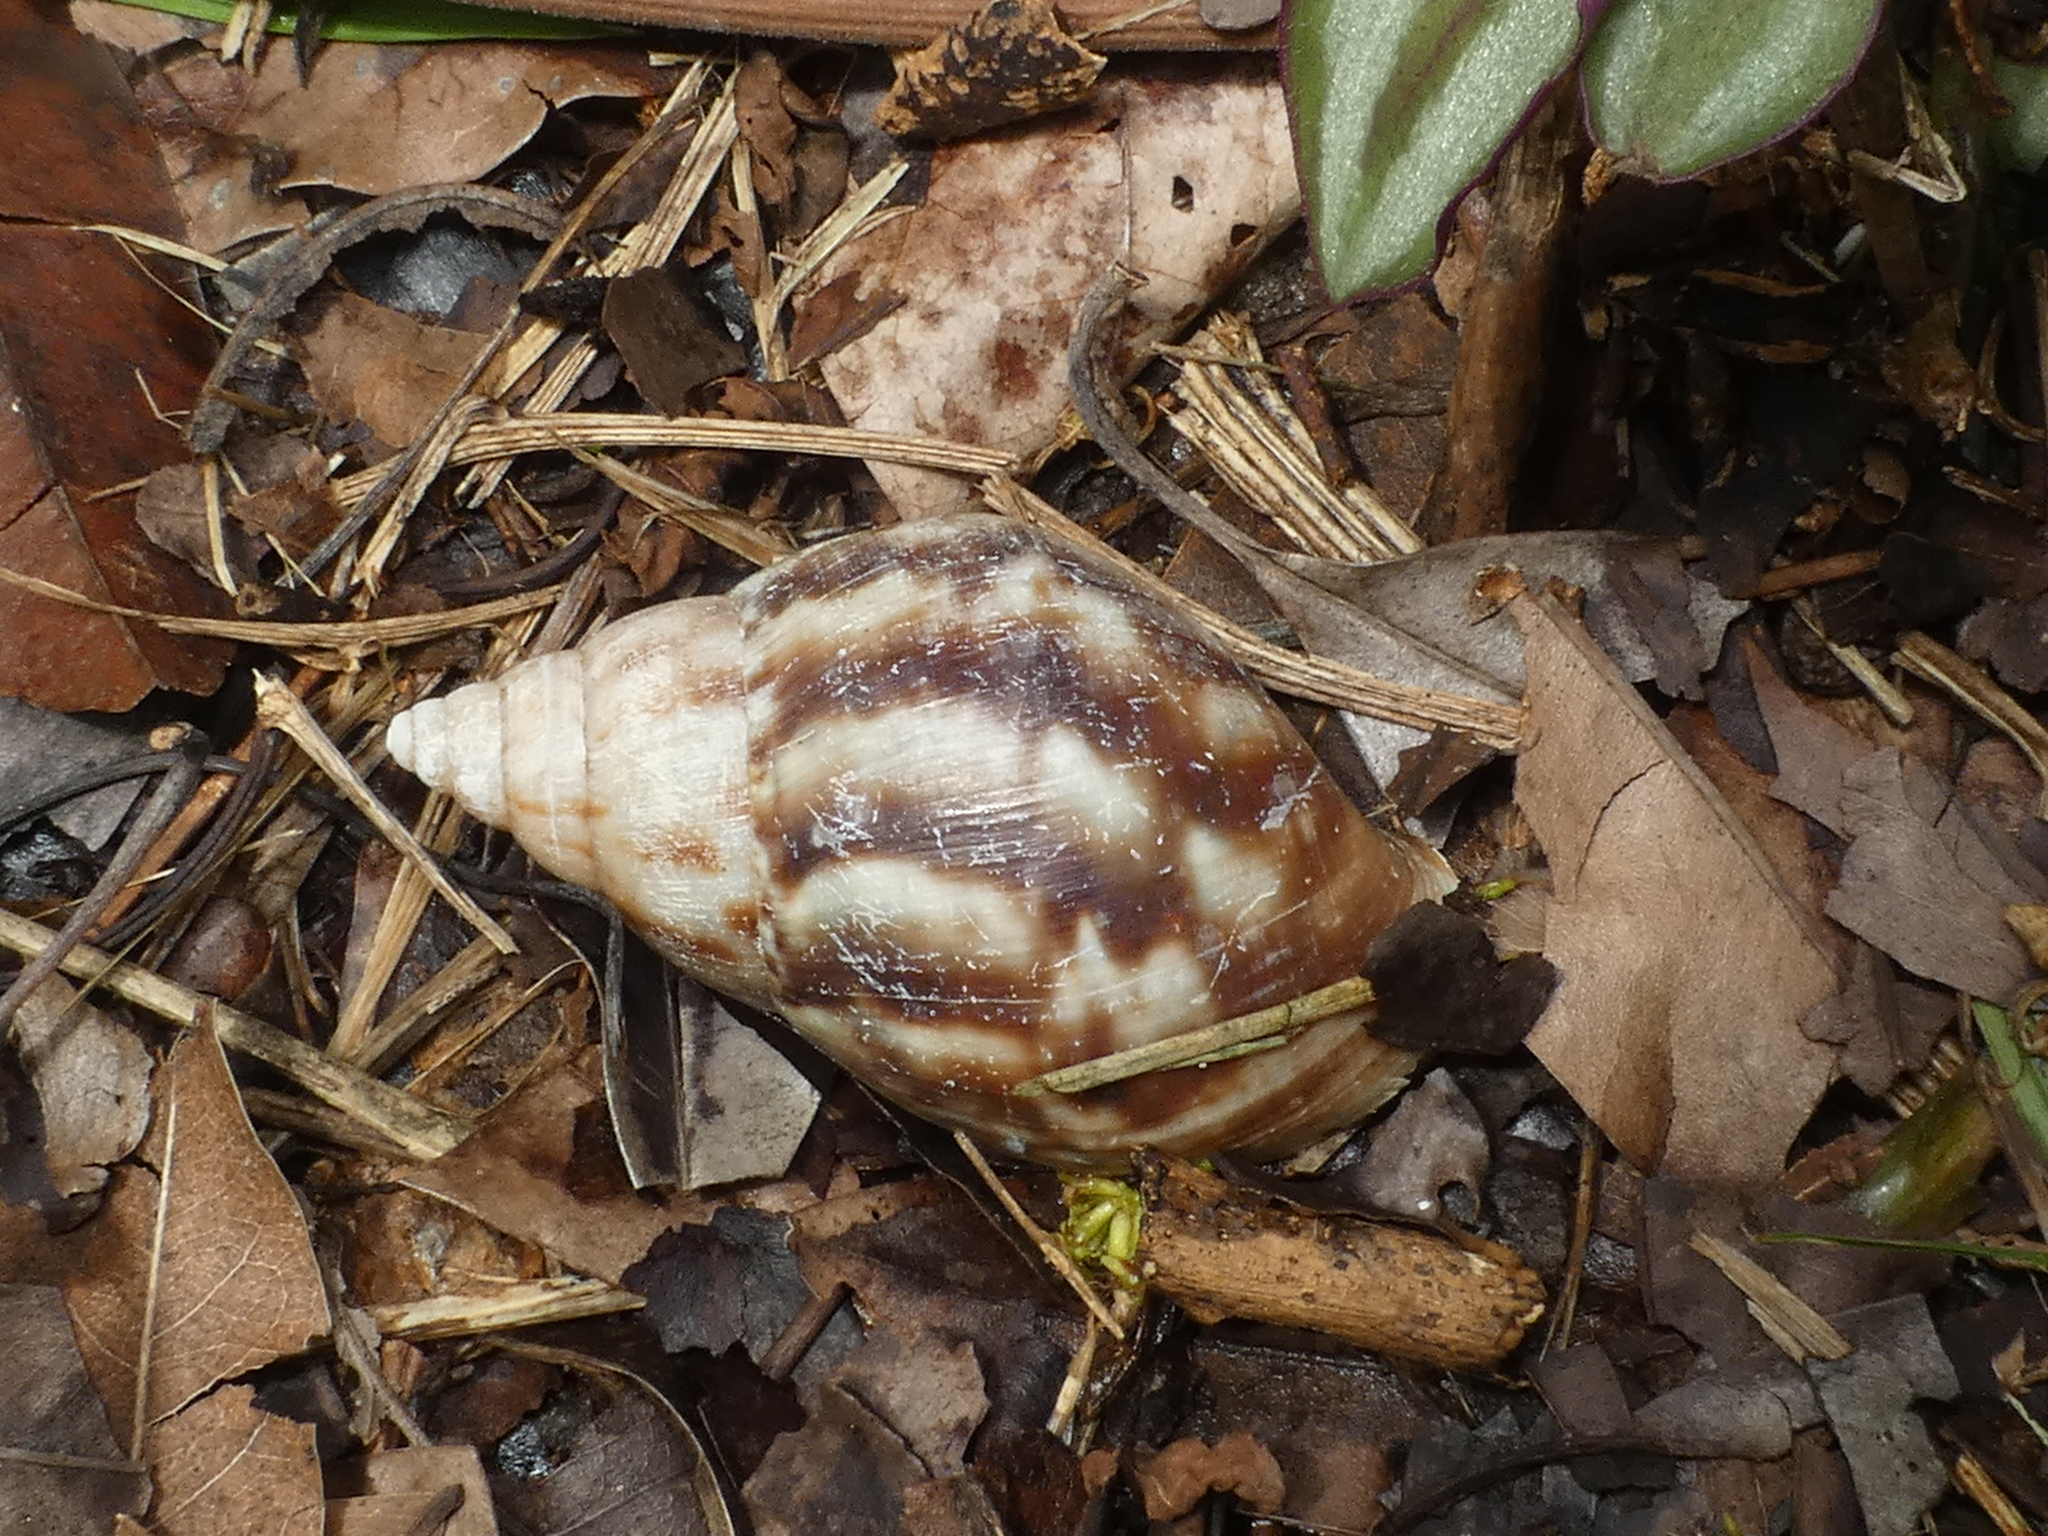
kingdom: Animalia
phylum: Mollusca
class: Gastropoda
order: Stylommatophora
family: Achatinidae
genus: Lissachatina
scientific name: Lissachatina fulica
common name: Giant african snail
